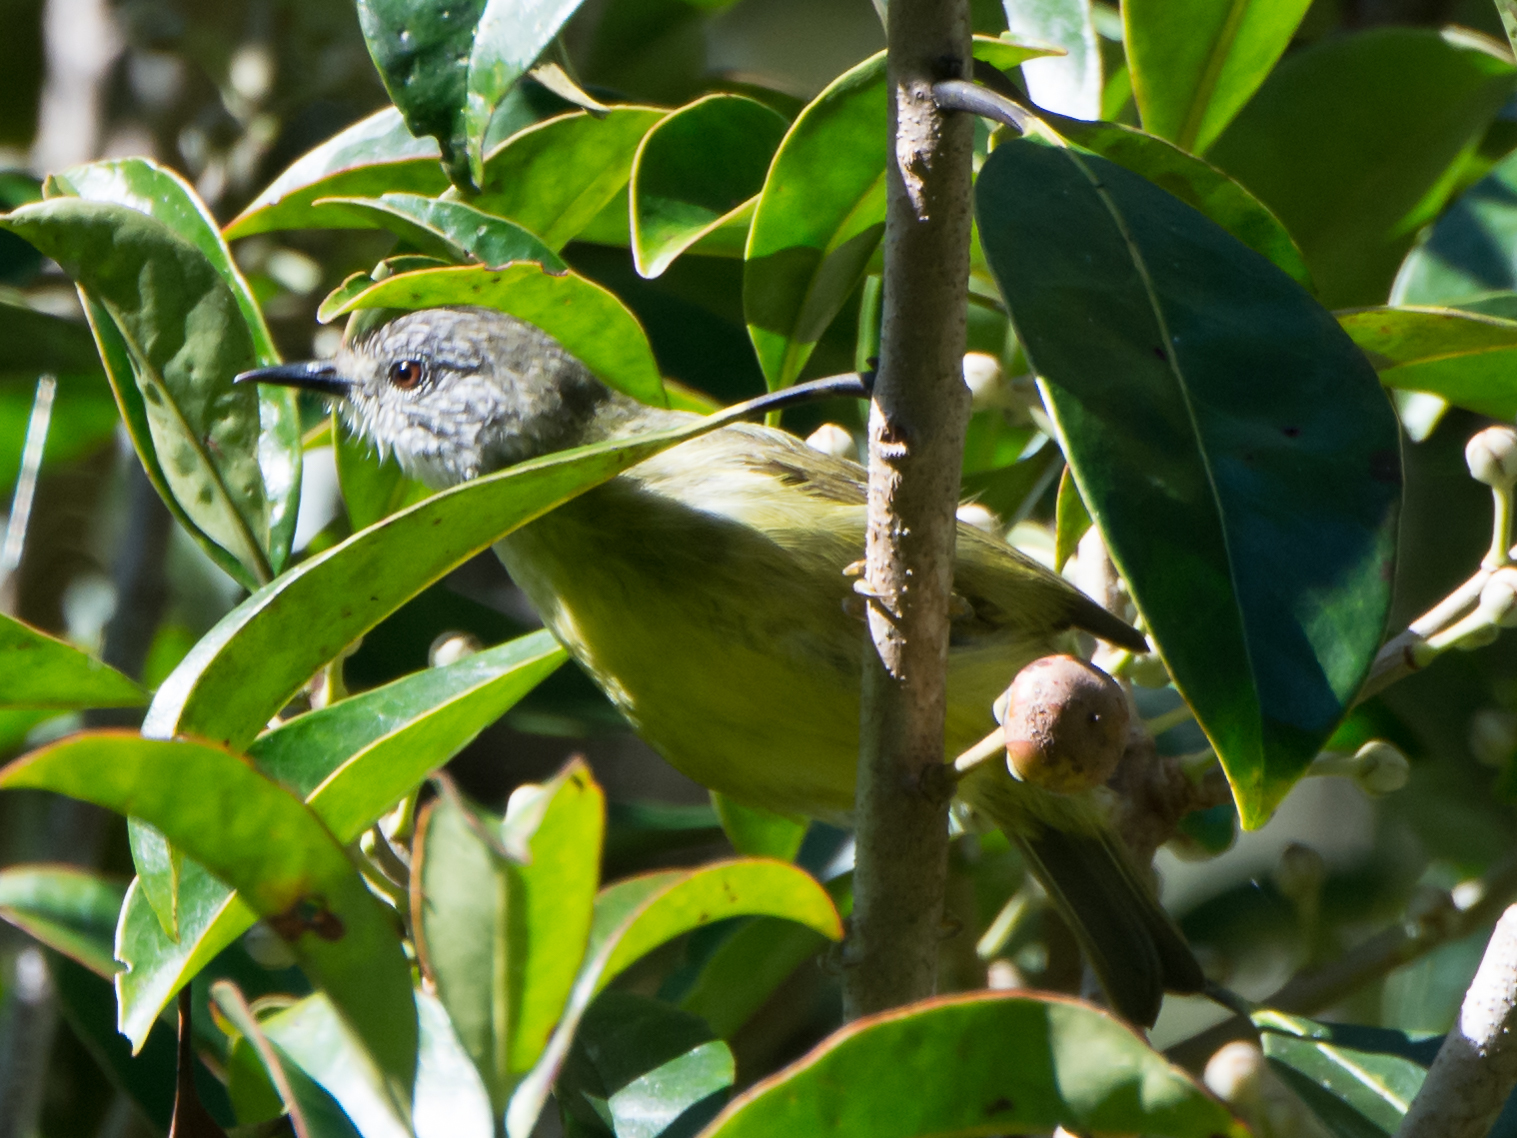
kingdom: Animalia
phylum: Chordata
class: Aves
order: Passeriformes
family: Zosteropidae
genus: Lophozosterops
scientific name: Lophozosterops squamiceps
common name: Streak-headed white-eye
